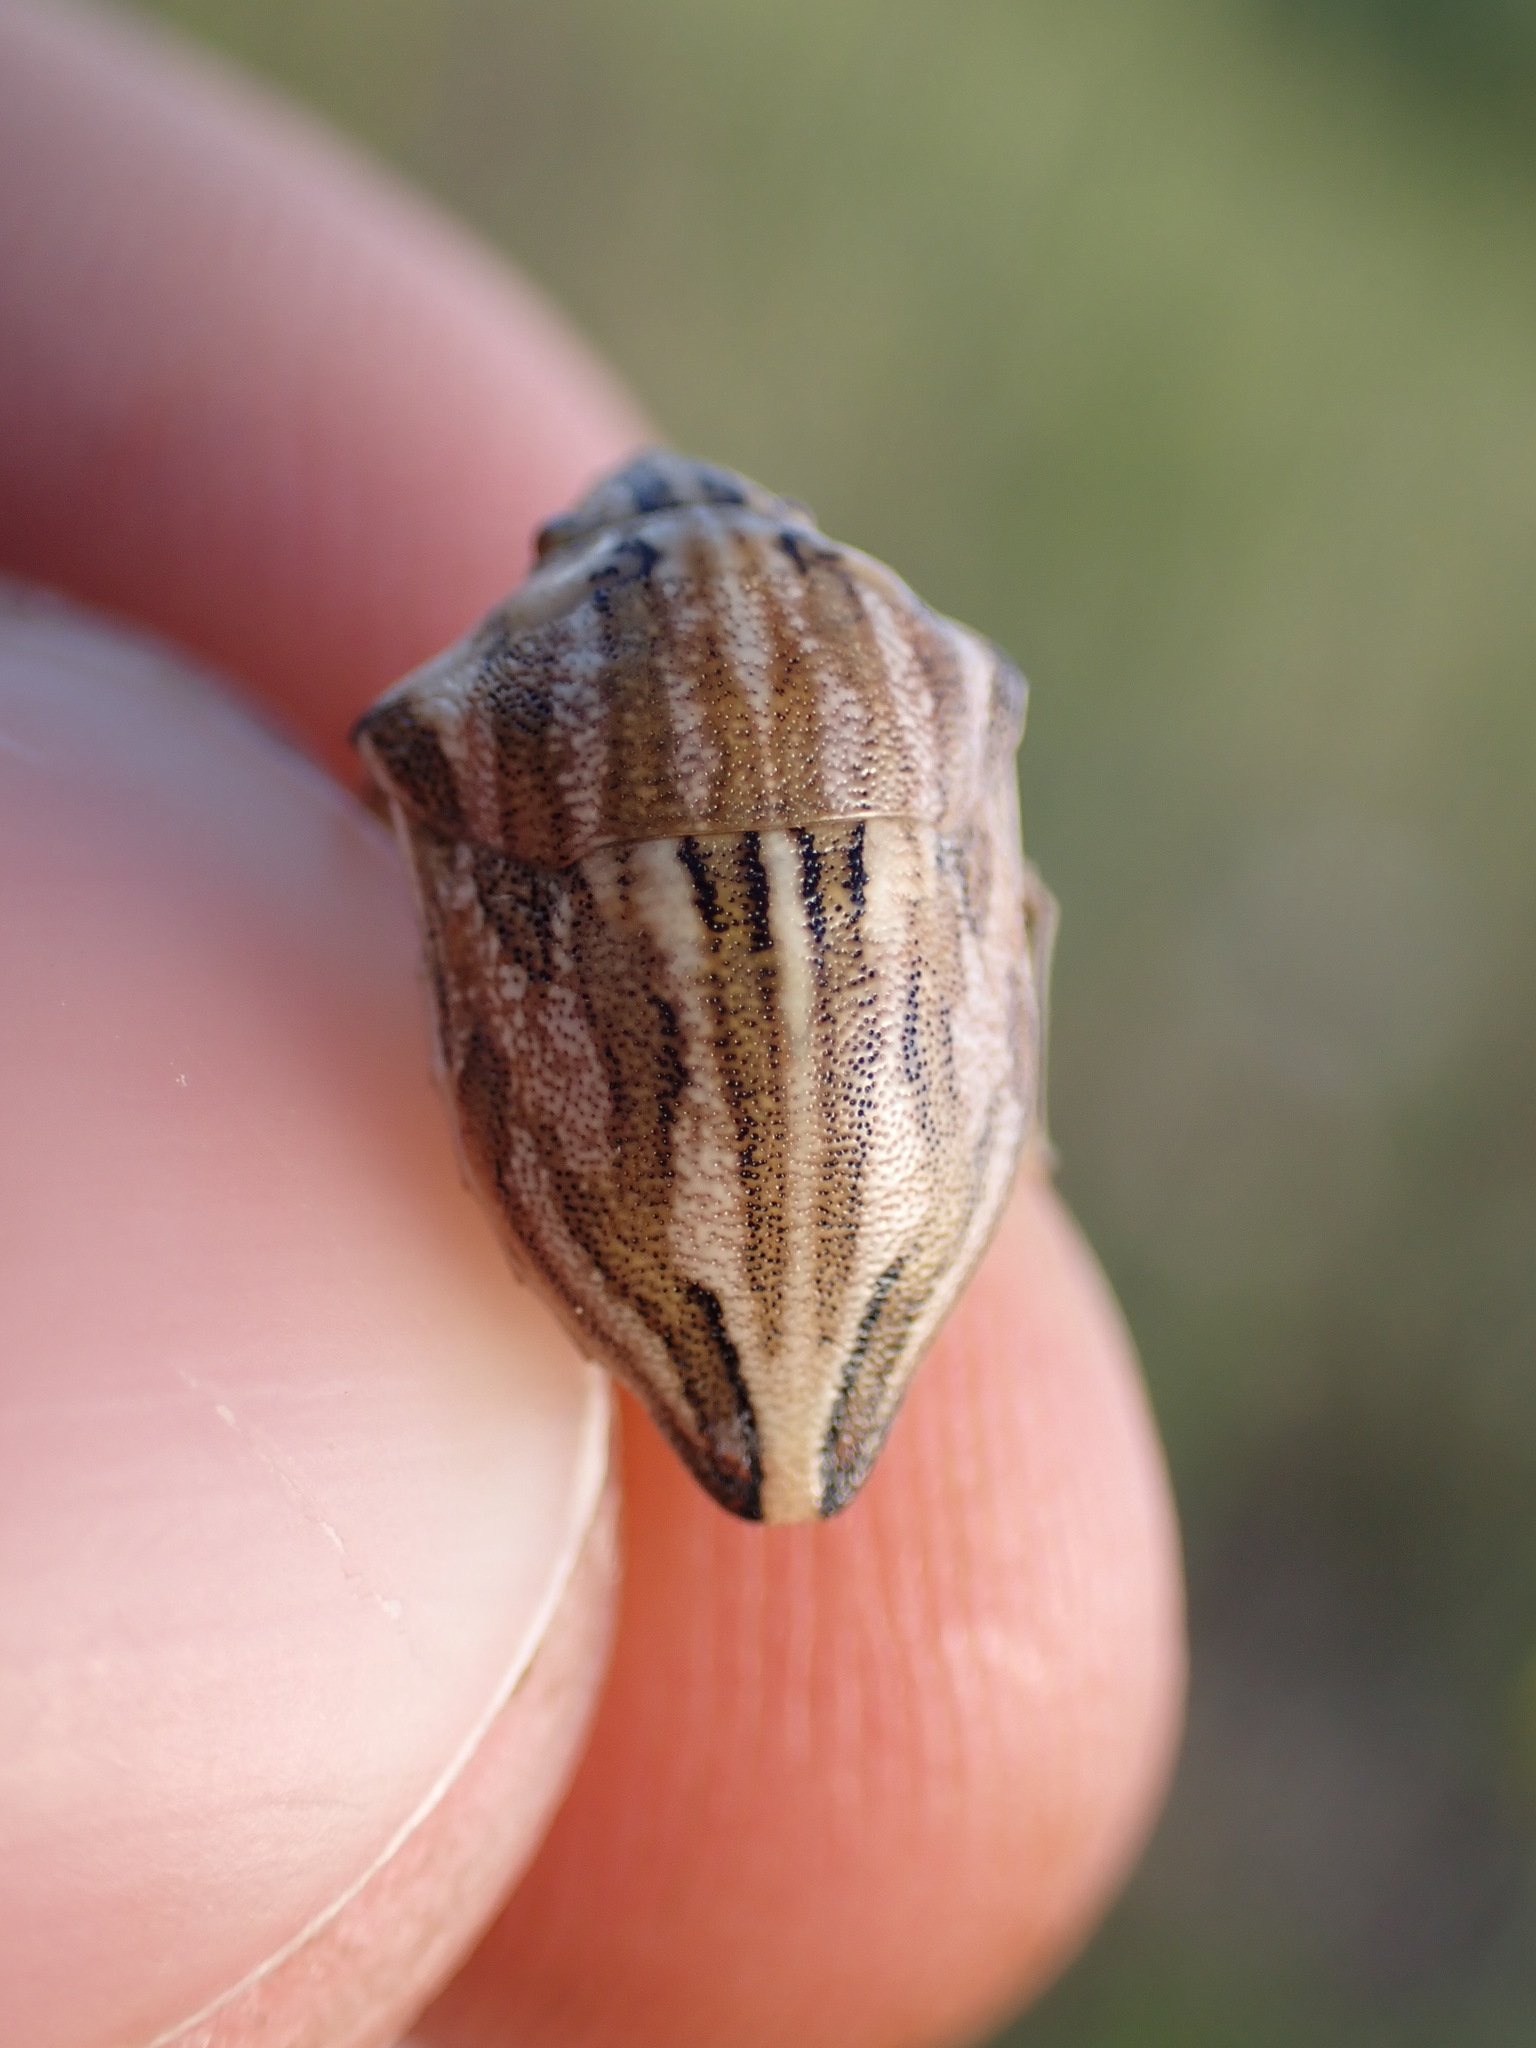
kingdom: Animalia
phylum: Arthropoda
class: Insecta
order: Hemiptera
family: Scutelleridae
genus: Odontotarsus
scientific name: Odontotarsus robustus
